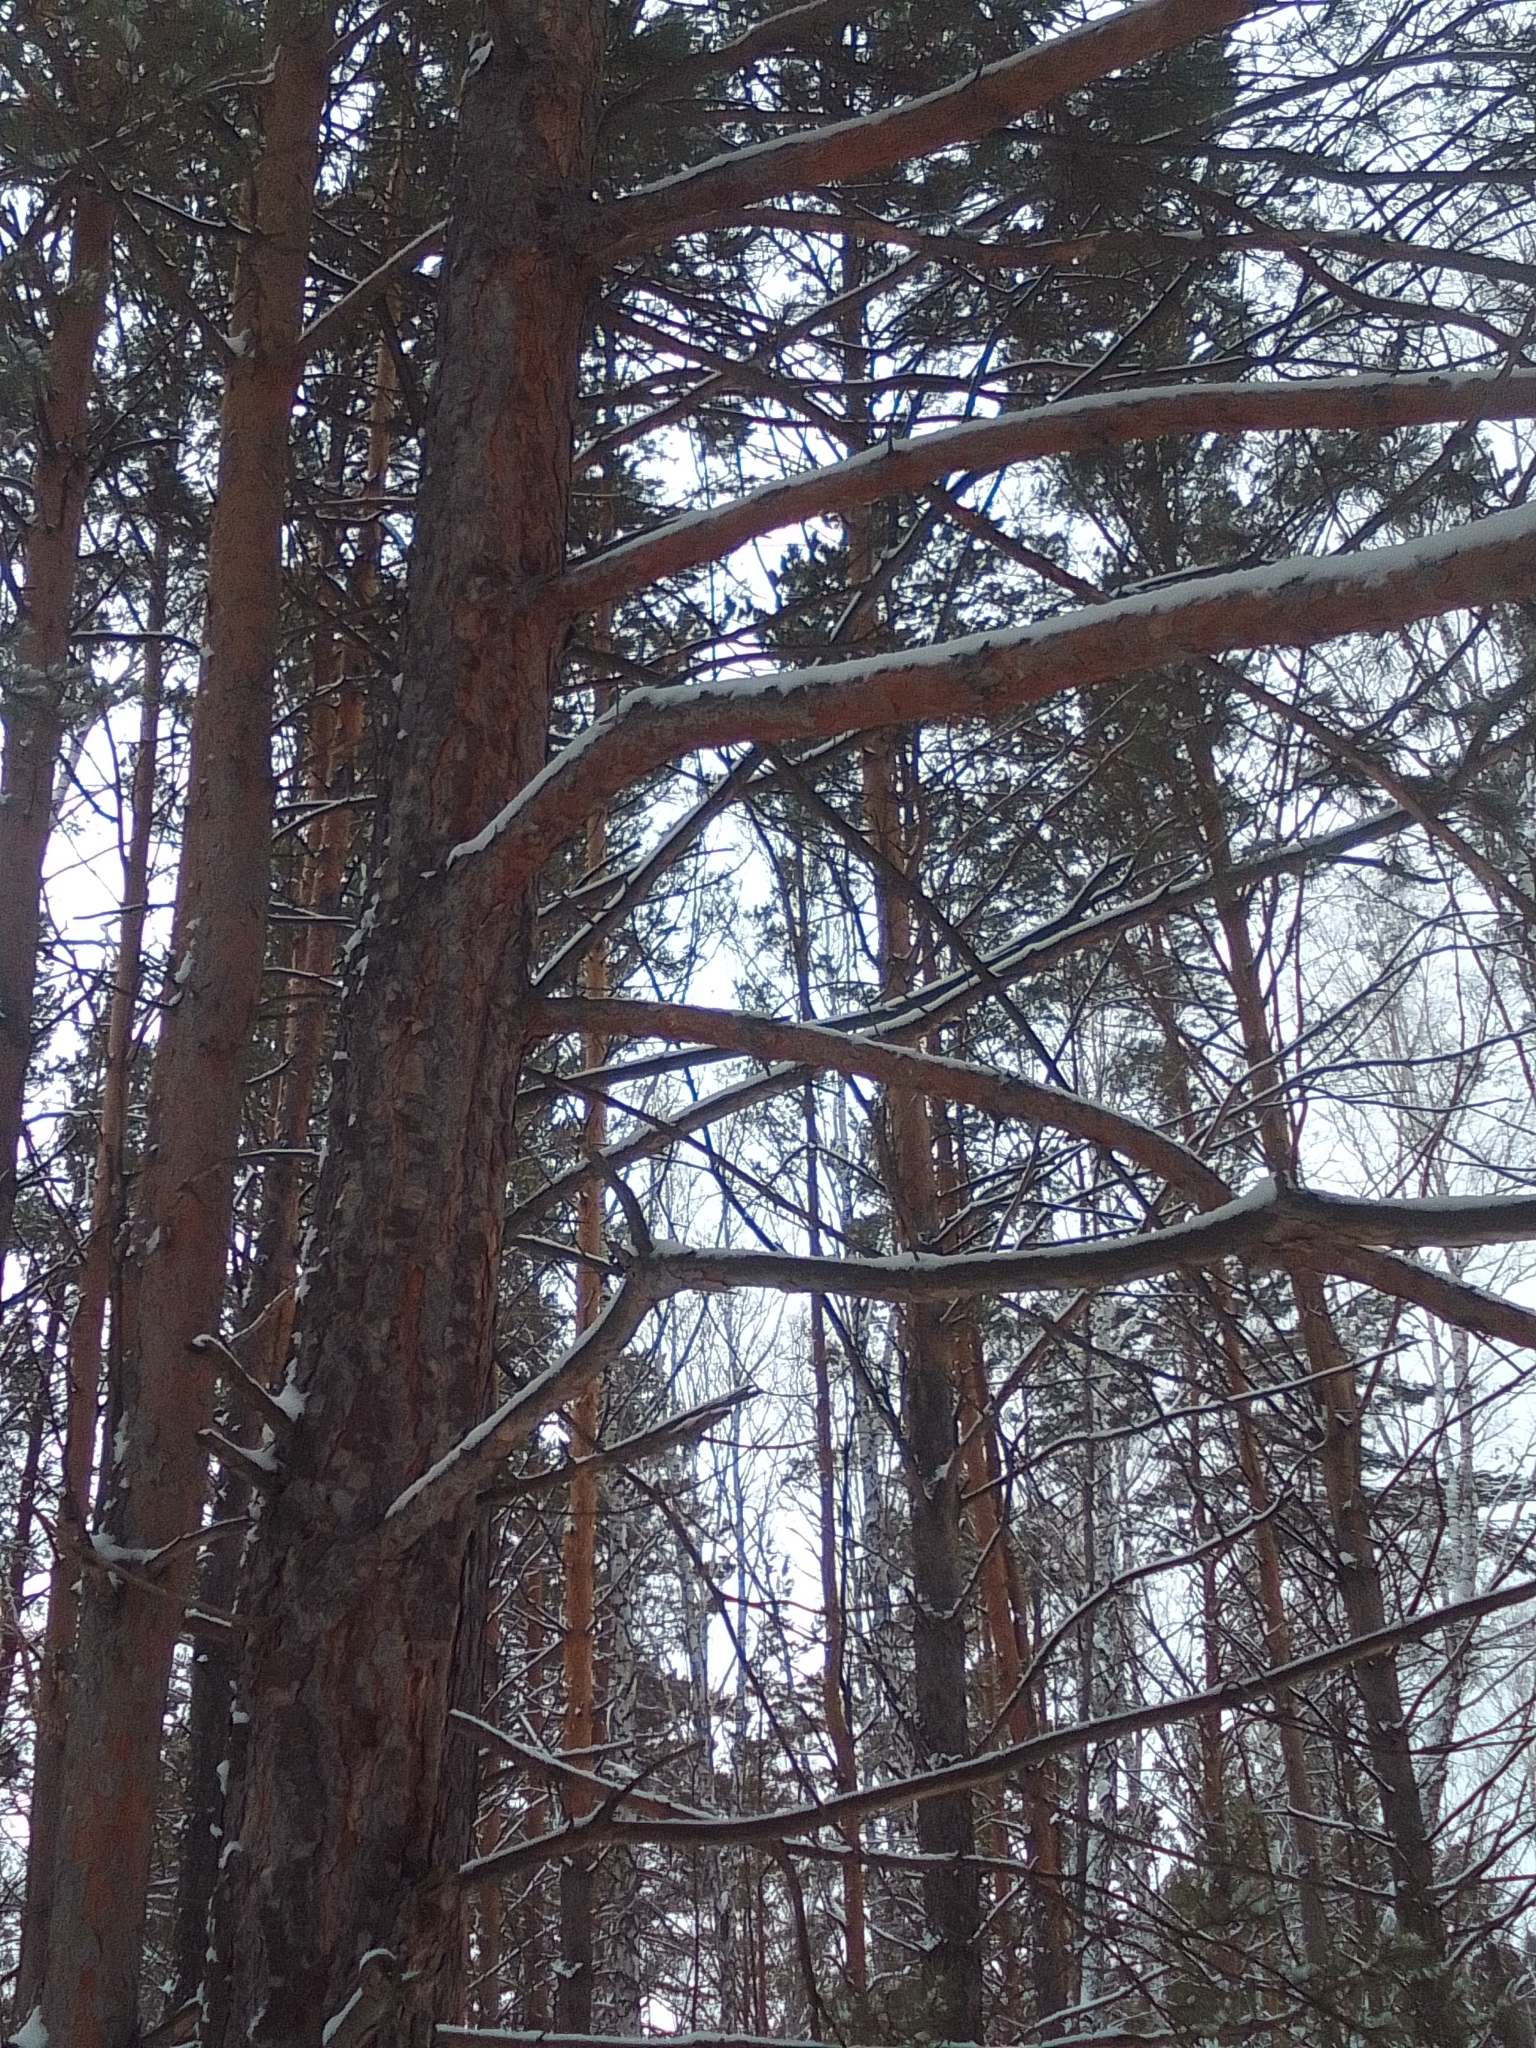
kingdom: Plantae
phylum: Tracheophyta
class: Pinopsida
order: Pinales
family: Pinaceae
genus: Pinus
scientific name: Pinus sylvestris
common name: Scots pine
